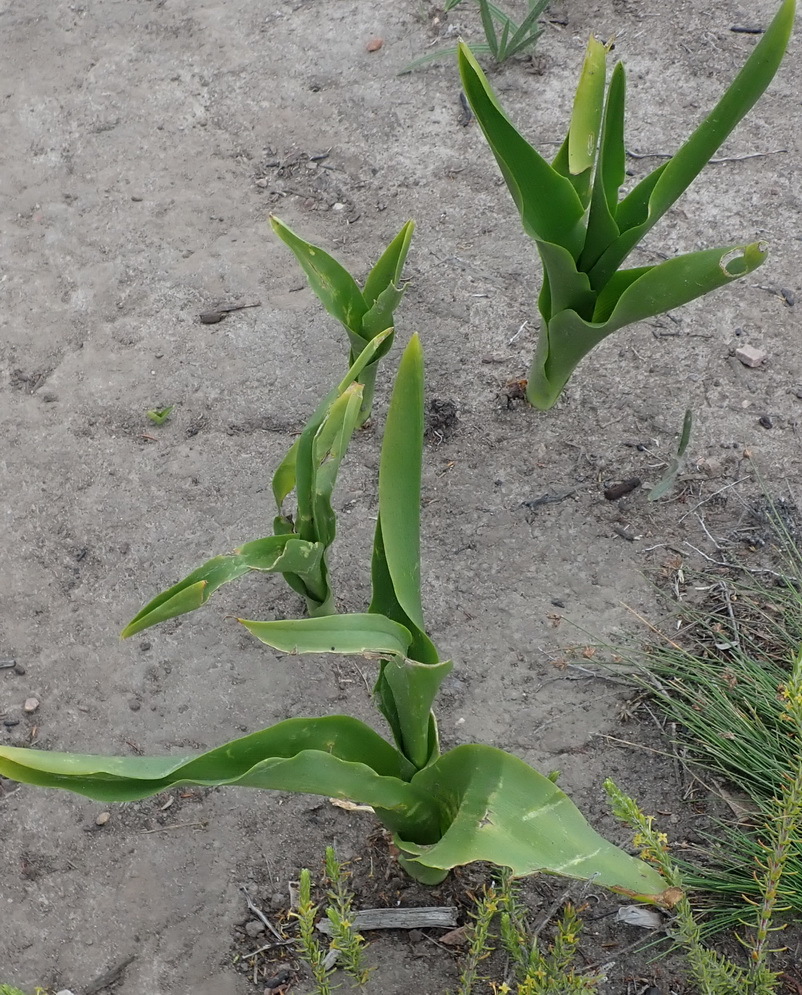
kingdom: Plantae
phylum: Tracheophyta
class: Liliopsida
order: Asparagales
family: Asparagaceae
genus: Drimia
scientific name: Drimia capensis
